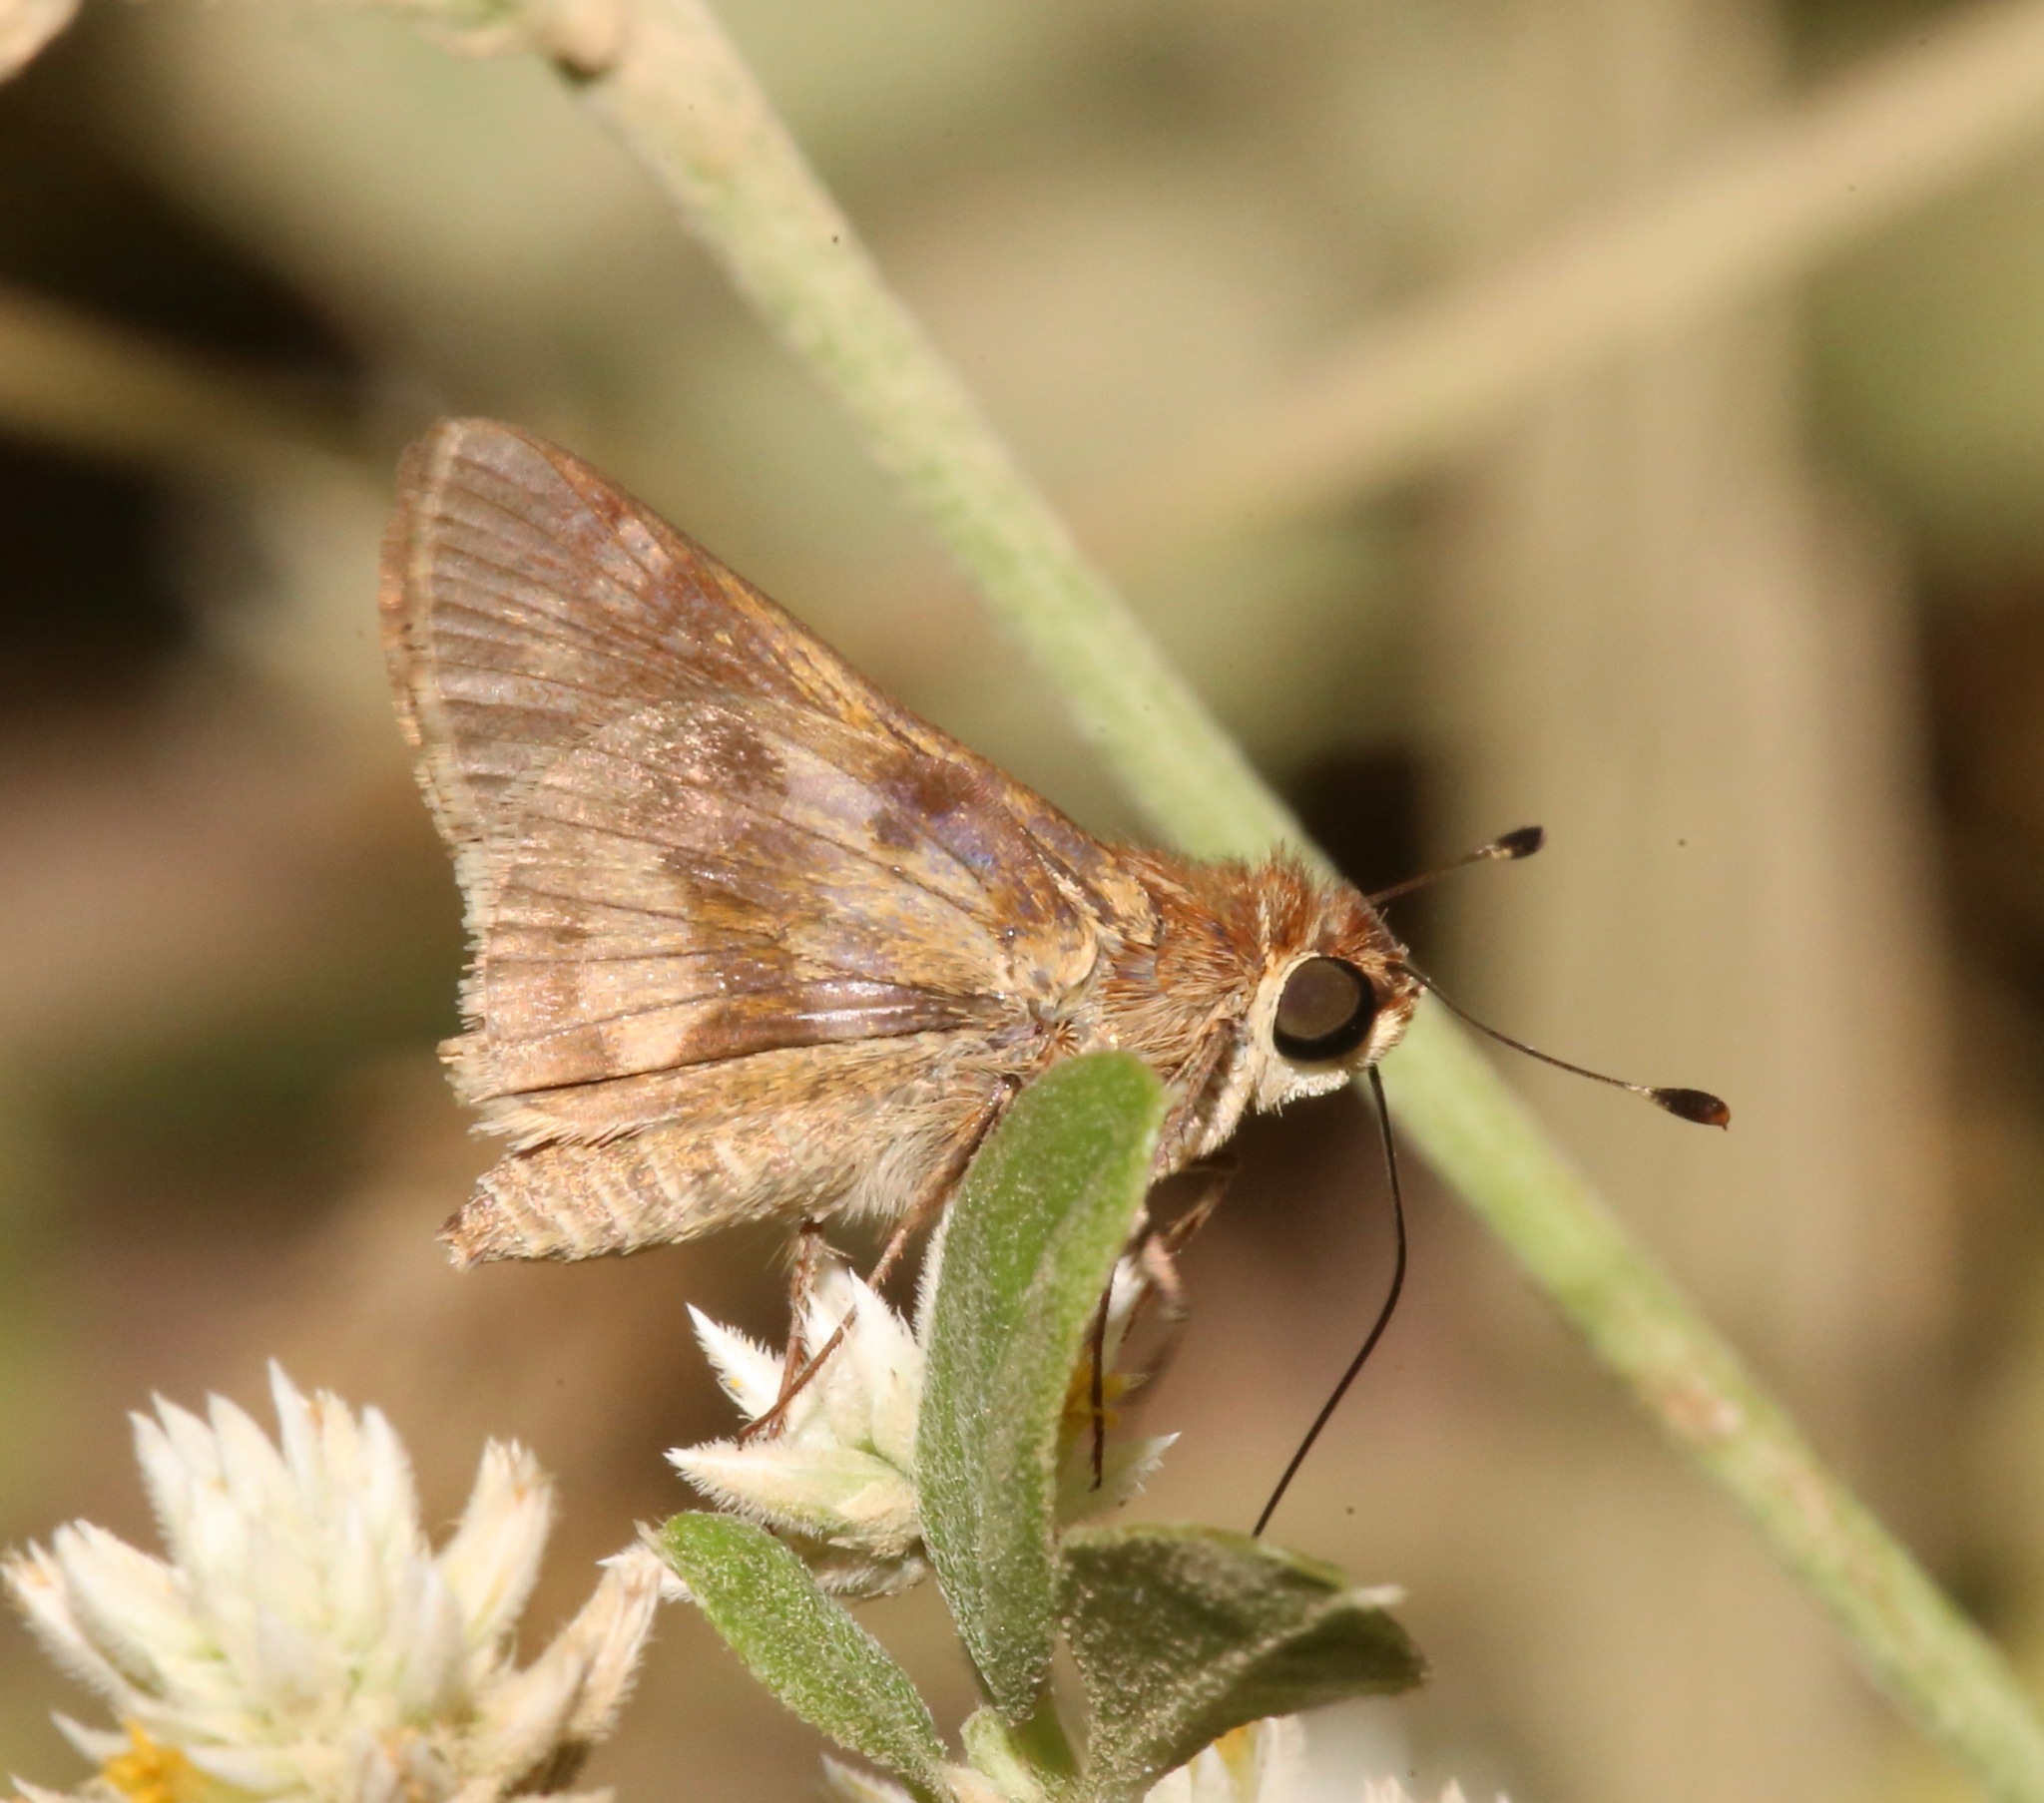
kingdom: Animalia
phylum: Arthropoda
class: Insecta
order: Lepidoptera
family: Hesperiidae
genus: Pompeius
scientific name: Pompeius pompeius
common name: Pompeius skipper
